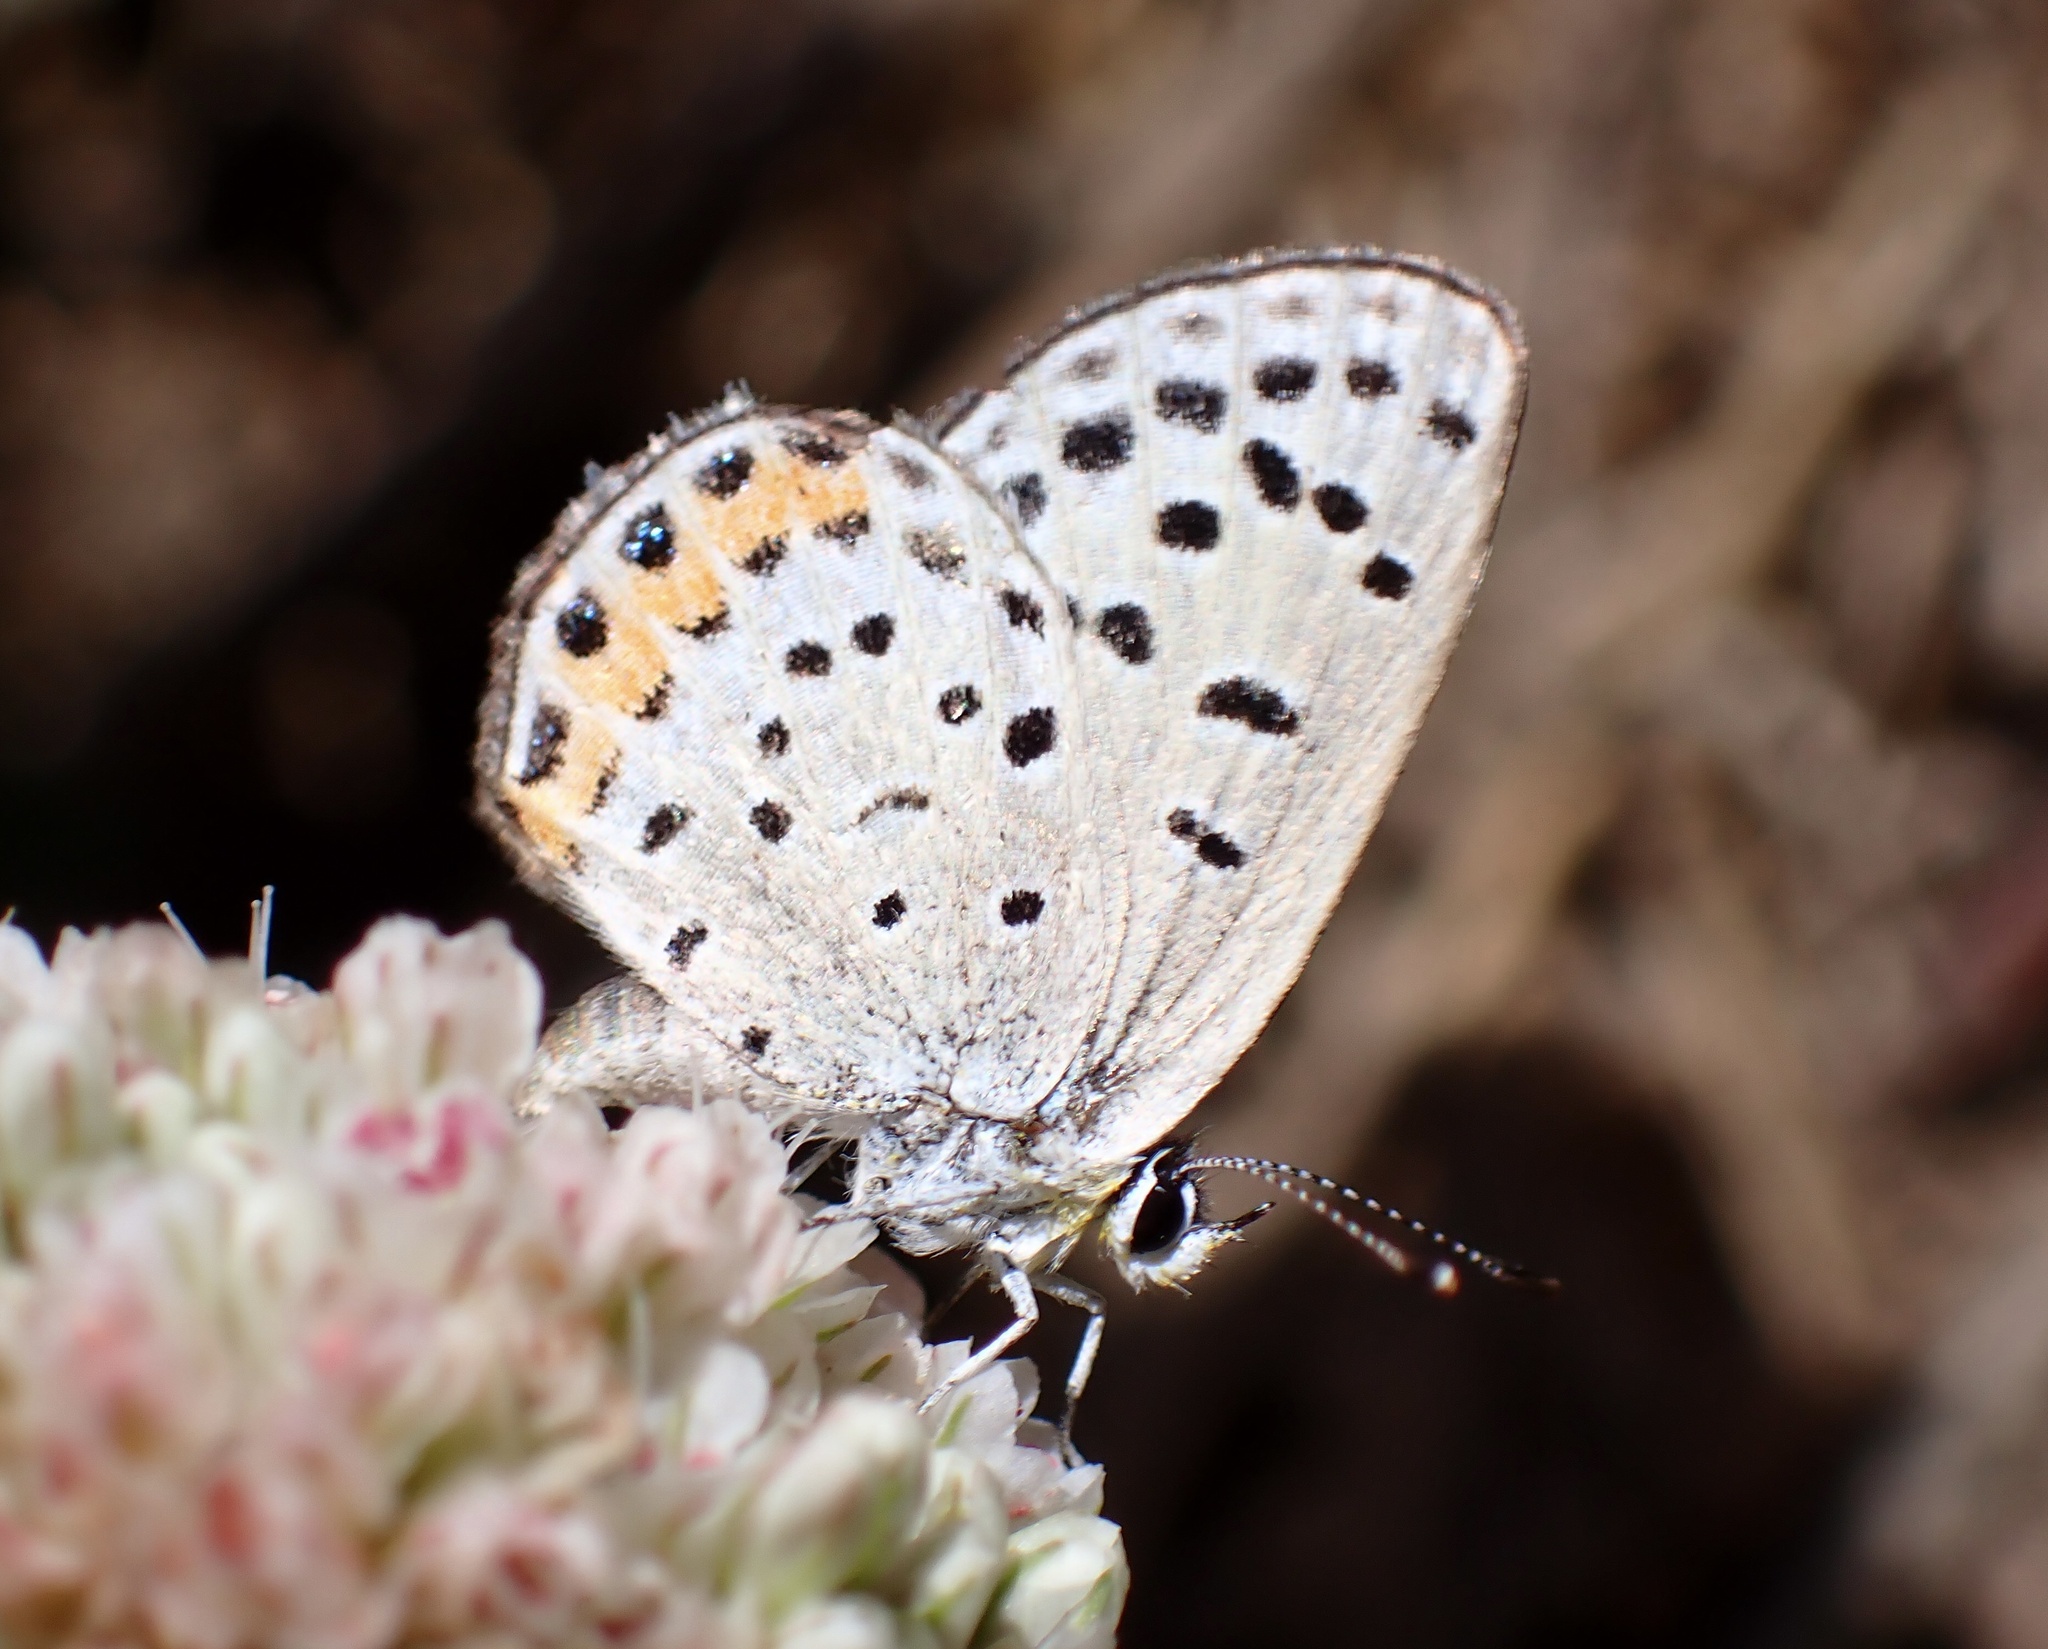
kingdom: Animalia
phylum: Arthropoda
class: Insecta
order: Lepidoptera
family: Lycaenidae
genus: Icaricia
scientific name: Icaricia acmon
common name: Acmon blue
